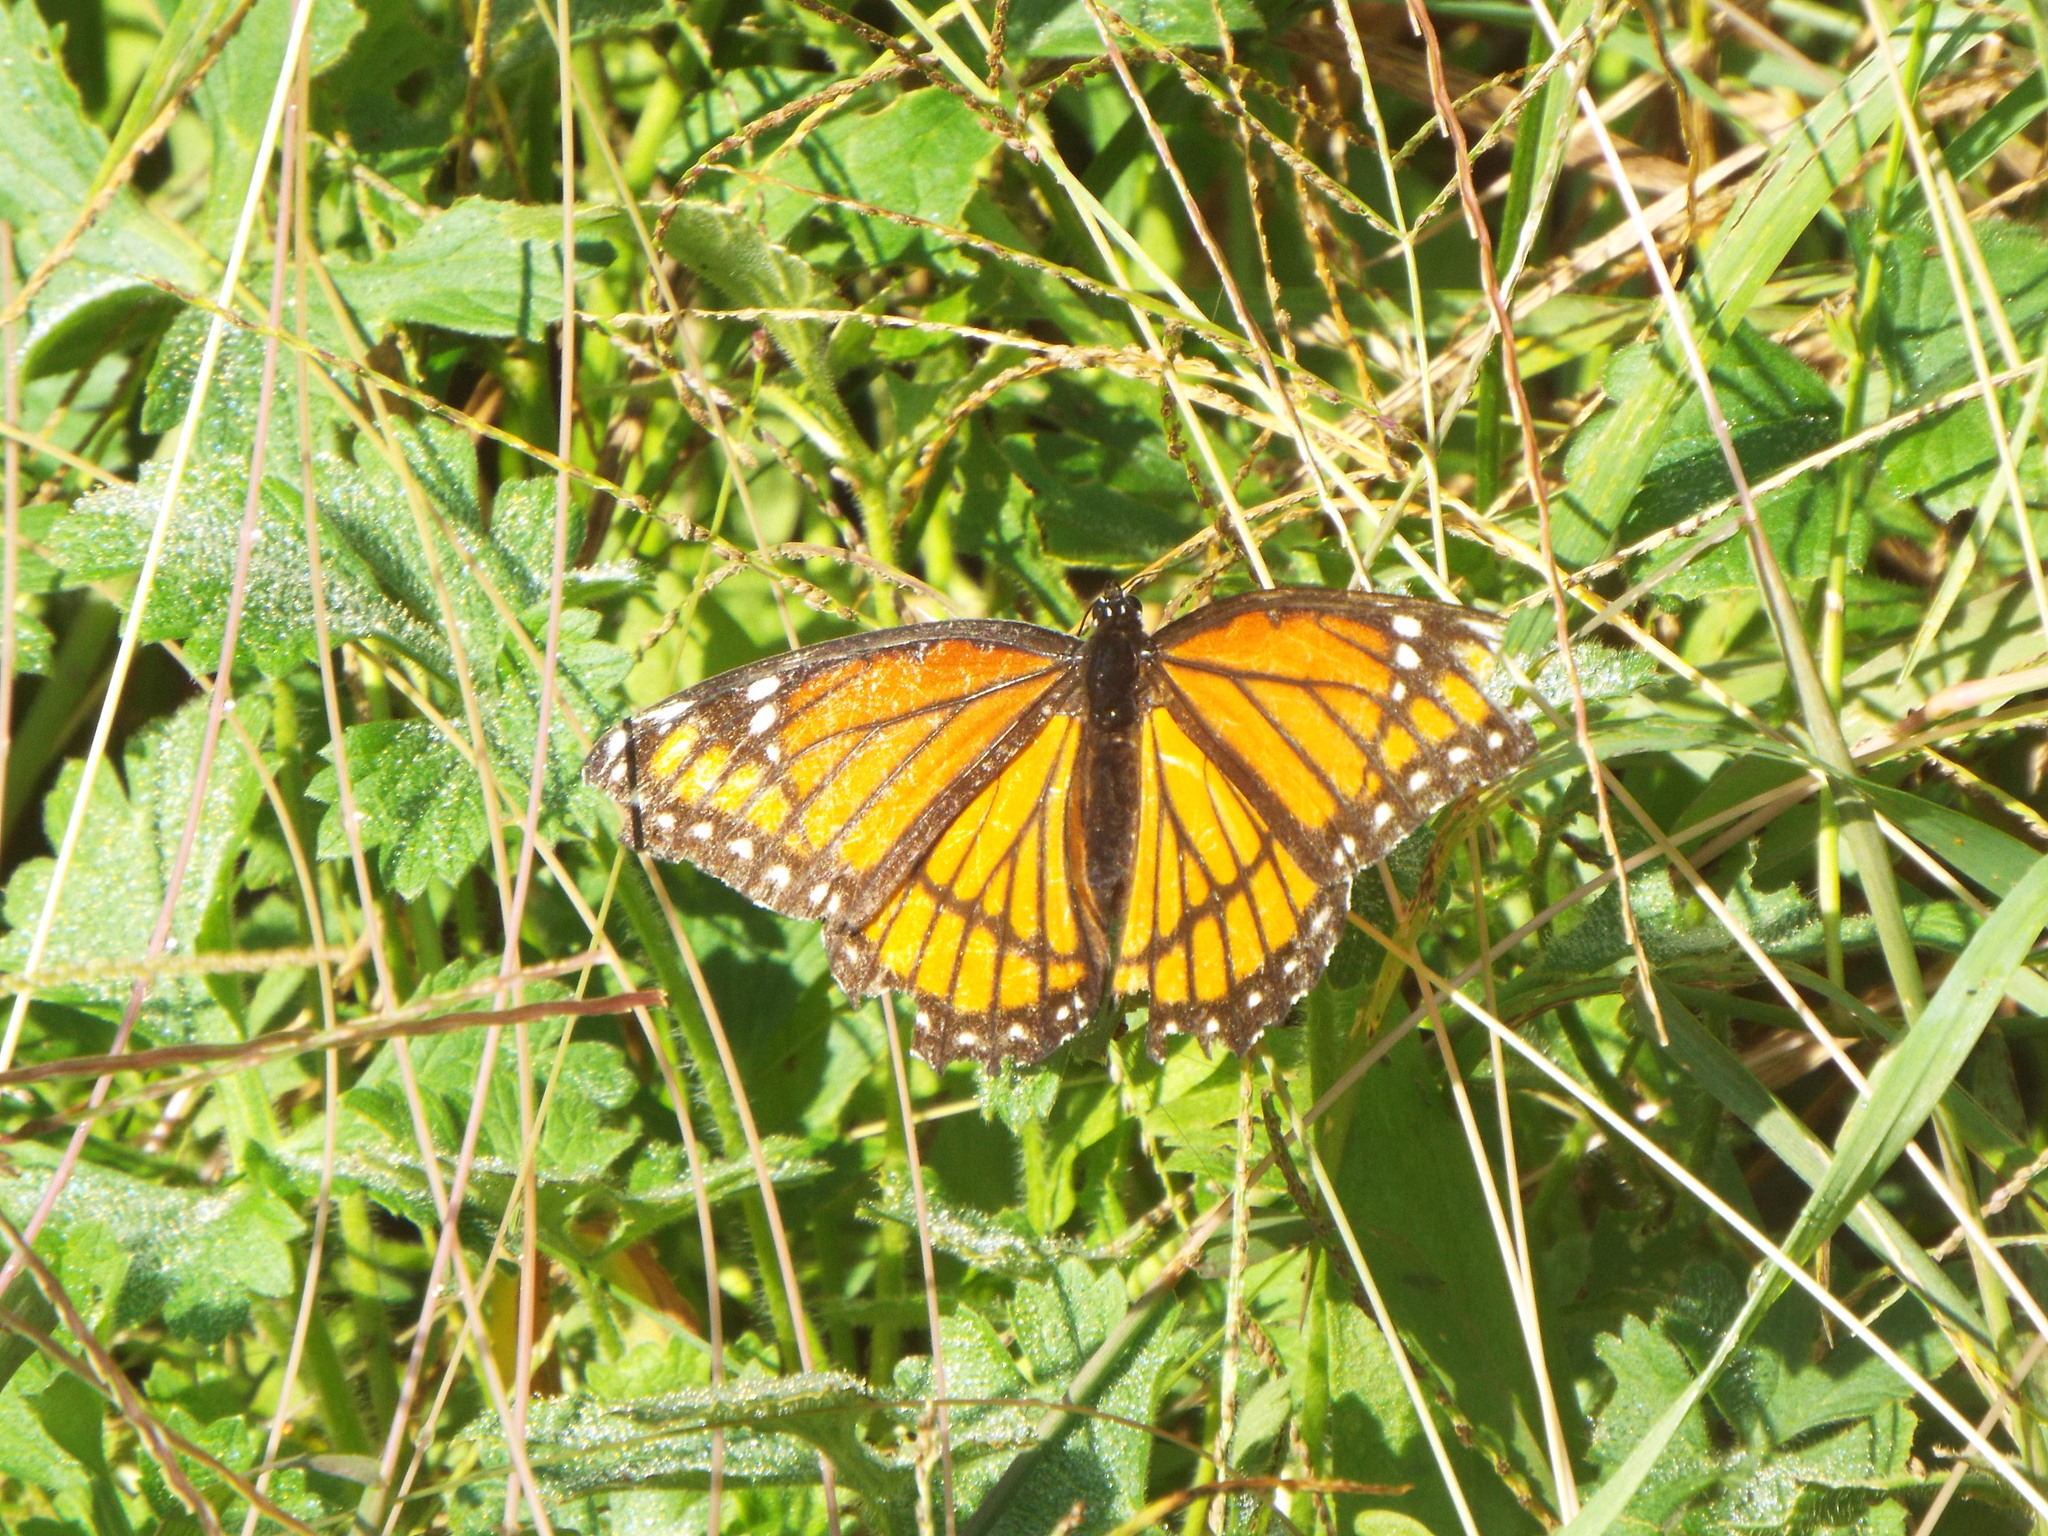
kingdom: Animalia
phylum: Arthropoda
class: Insecta
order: Lepidoptera
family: Nymphalidae
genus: Limenitis
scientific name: Limenitis archippus
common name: Viceroy
